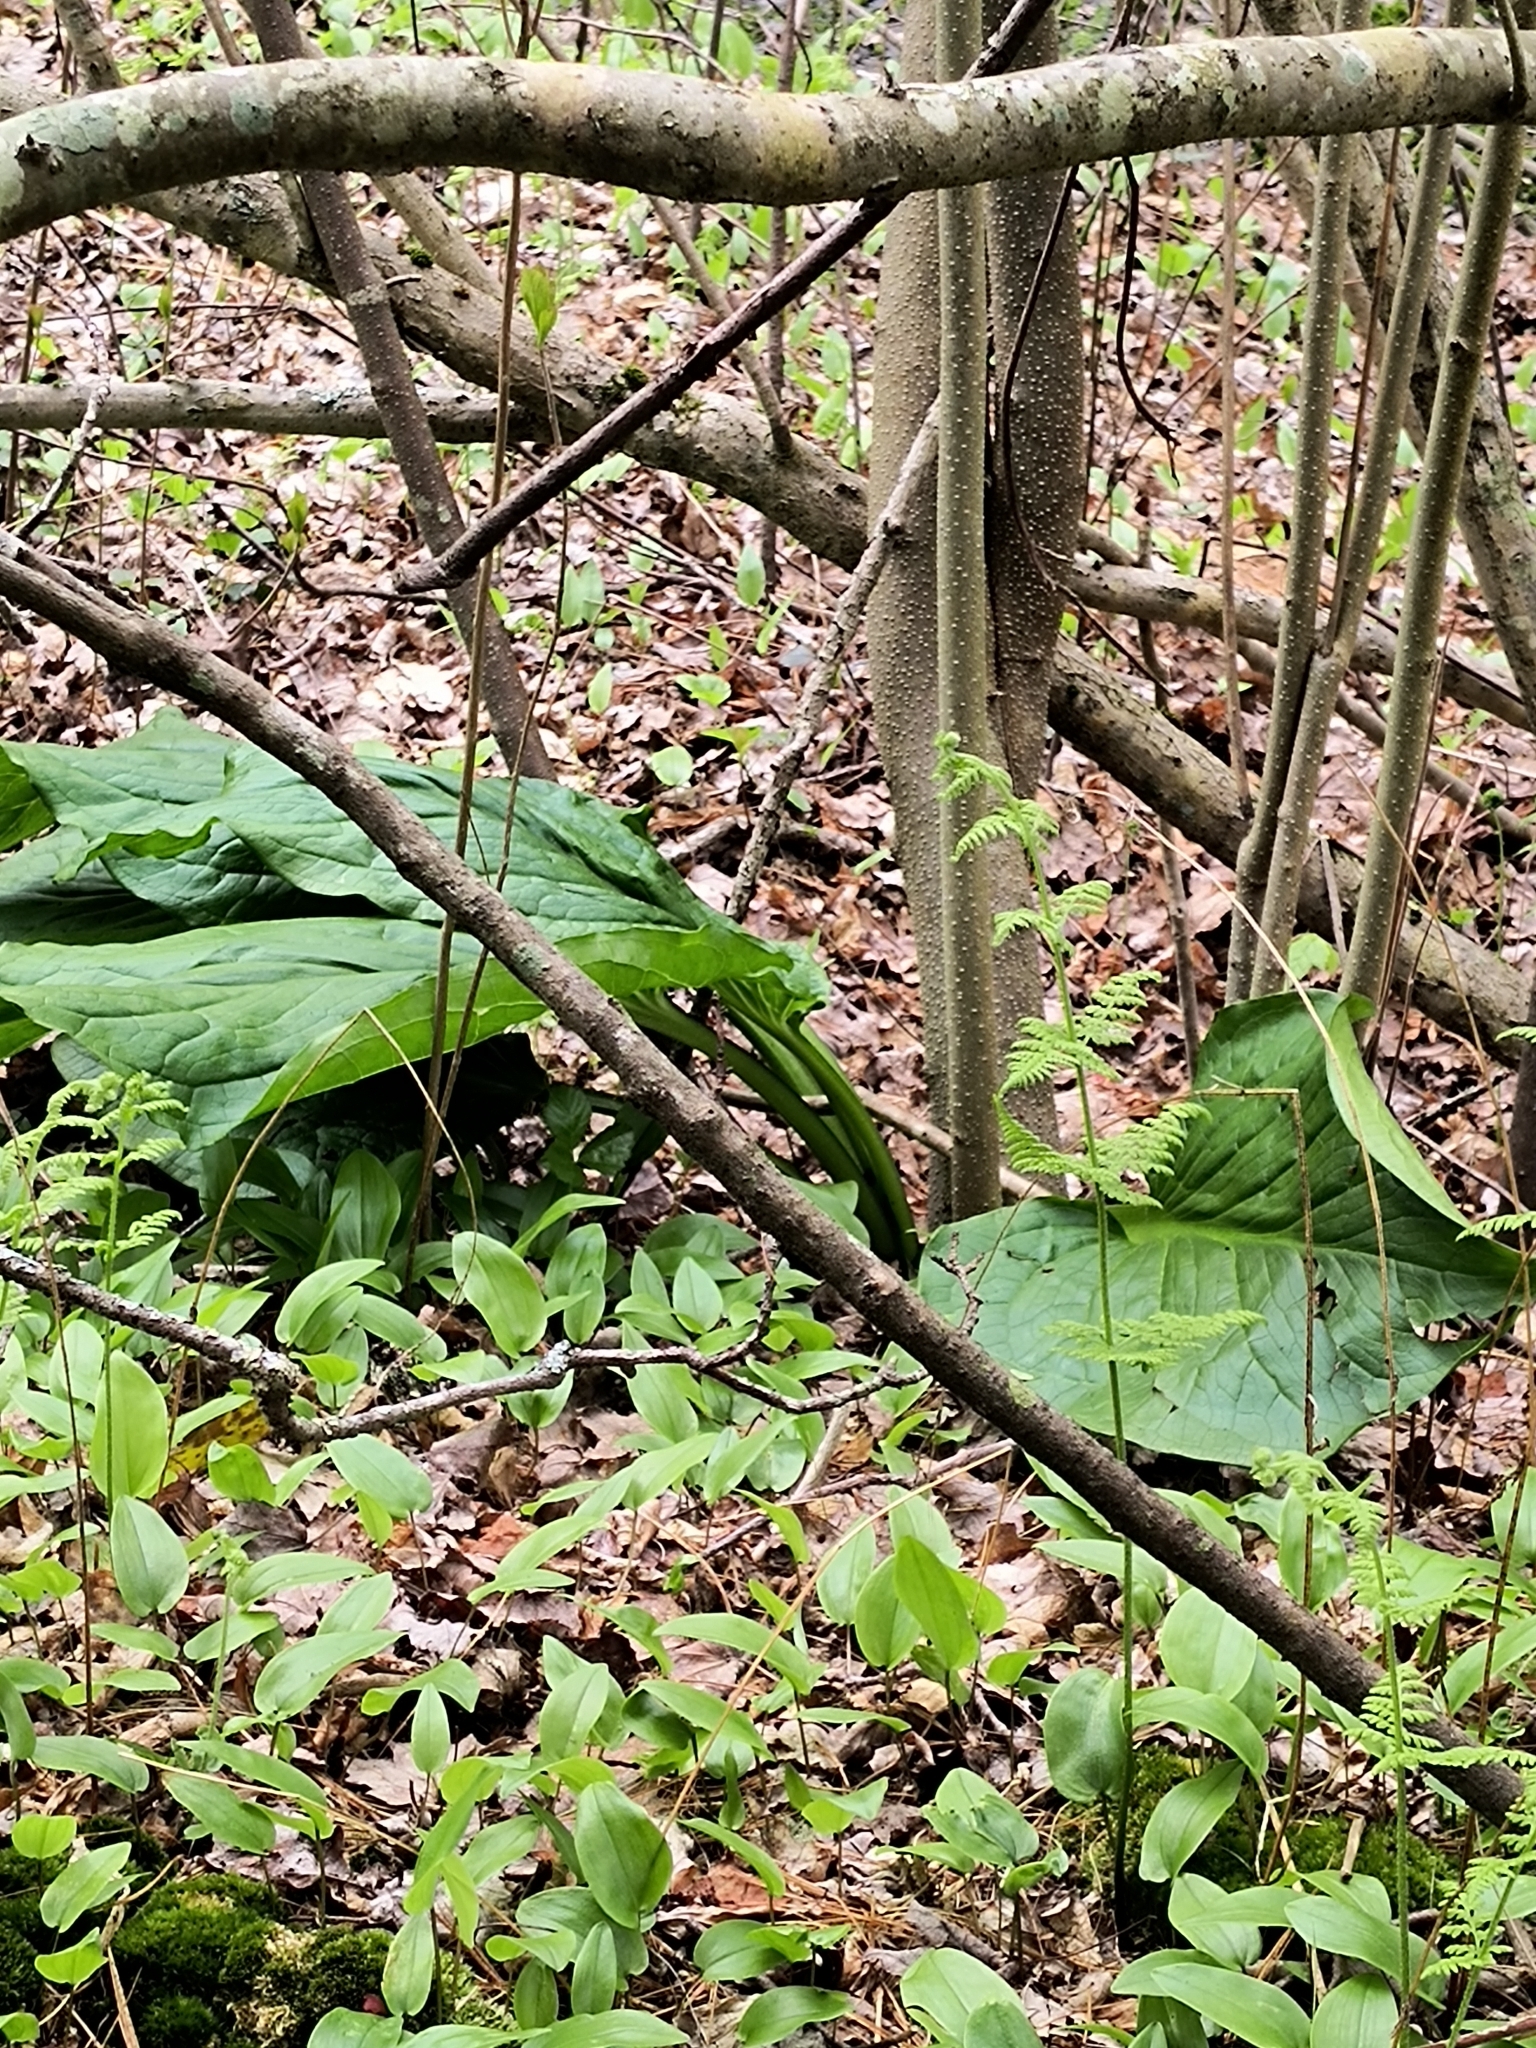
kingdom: Plantae
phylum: Tracheophyta
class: Liliopsida
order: Alismatales
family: Araceae
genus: Symplocarpus
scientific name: Symplocarpus foetidus
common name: Eastern skunk cabbage
